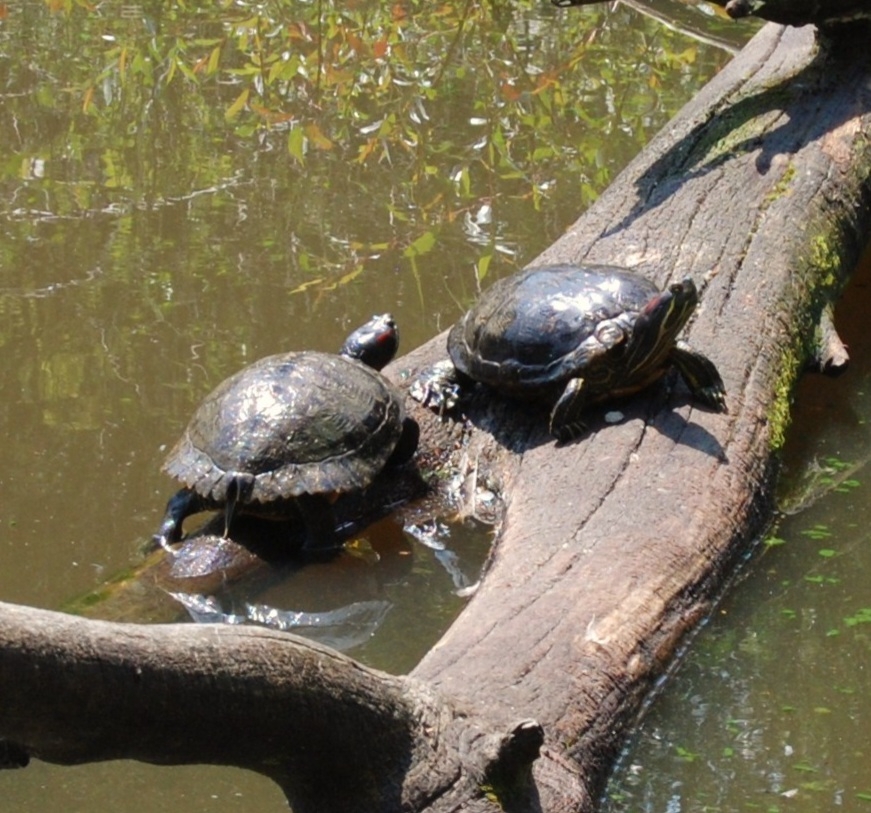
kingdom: Animalia
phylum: Chordata
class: Testudines
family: Emydidae
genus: Trachemys
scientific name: Trachemys scripta
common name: Slider
